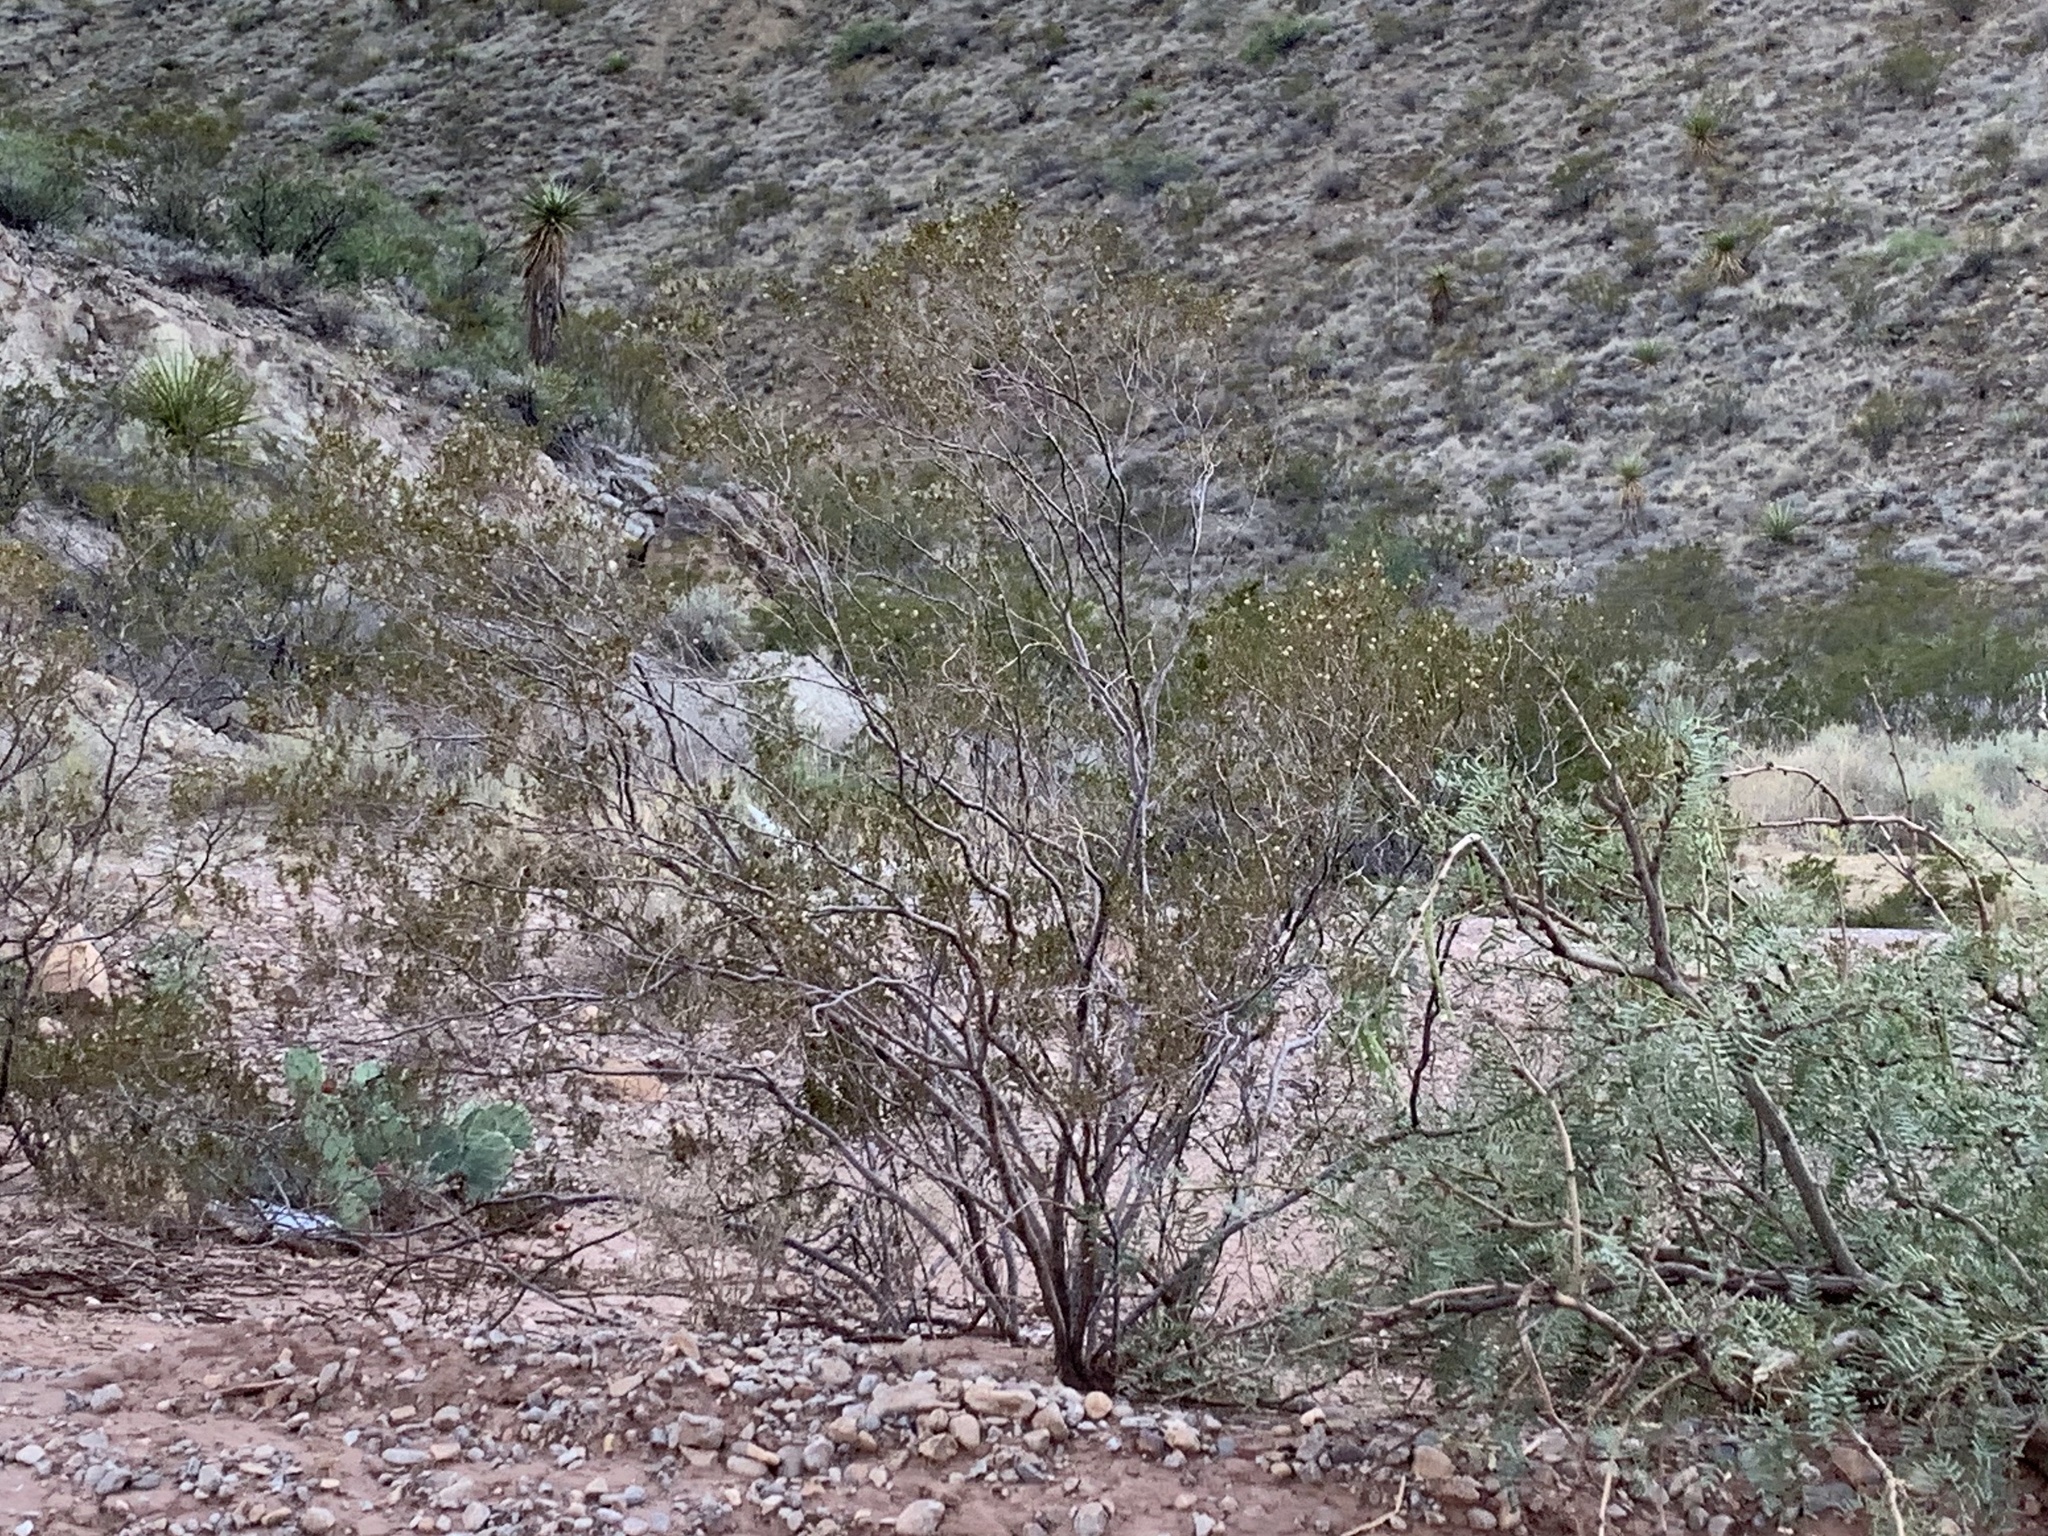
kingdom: Plantae
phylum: Tracheophyta
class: Magnoliopsida
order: Zygophyllales
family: Zygophyllaceae
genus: Larrea
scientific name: Larrea tridentata
